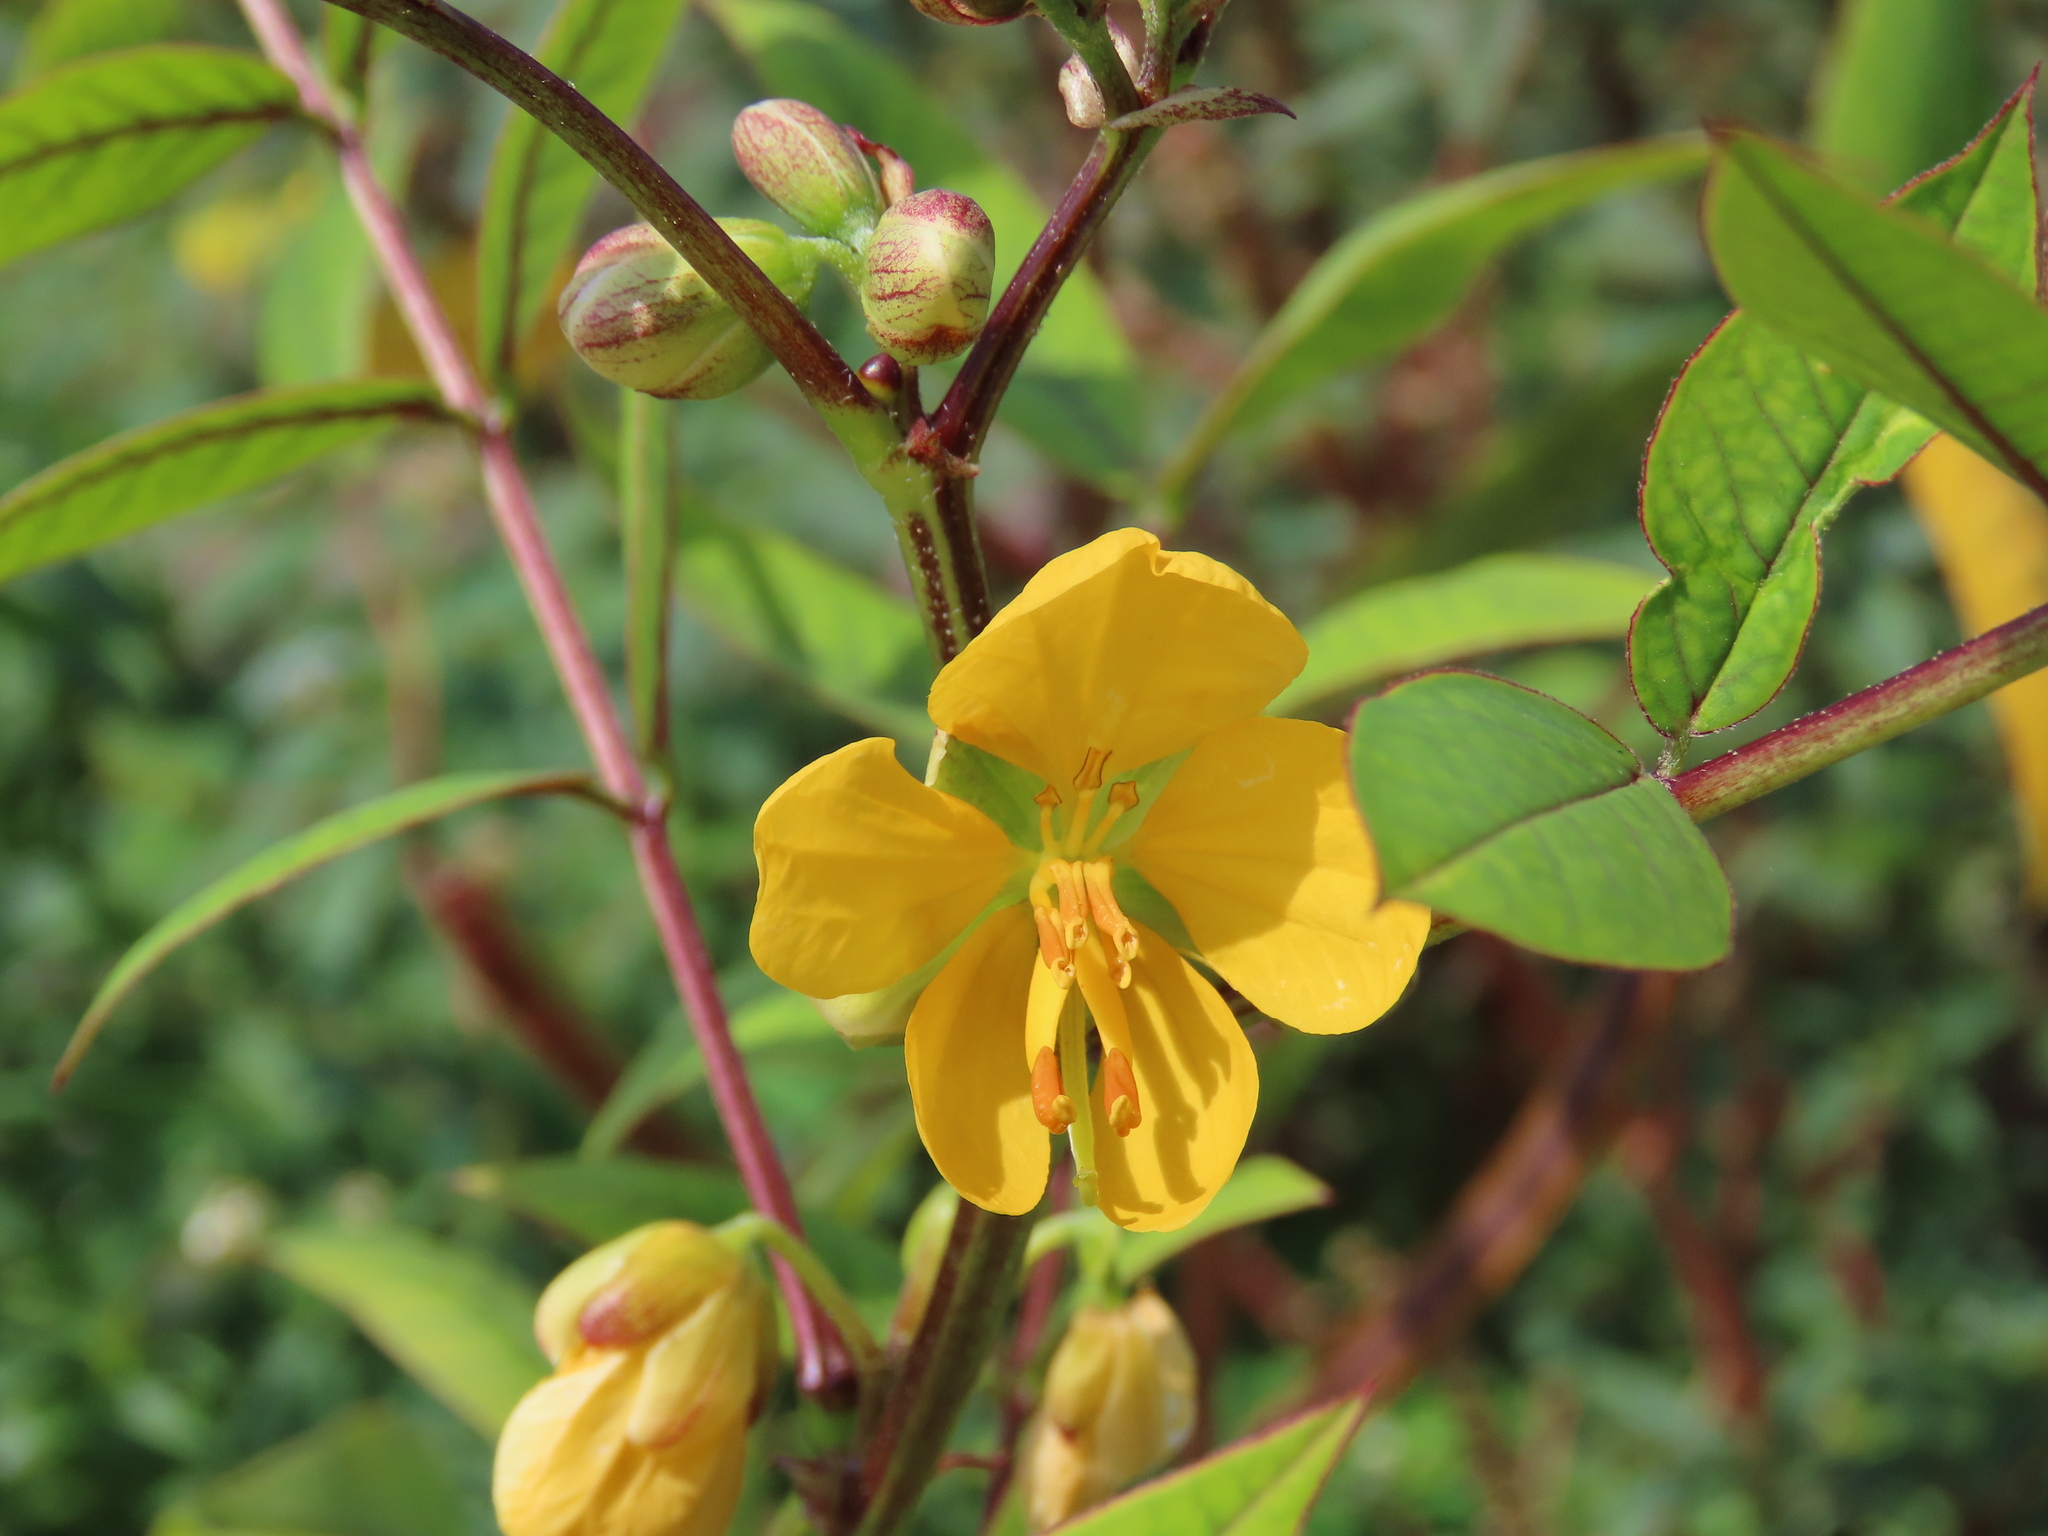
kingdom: Plantae
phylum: Tracheophyta
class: Magnoliopsida
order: Fabales
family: Fabaceae
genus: Senna
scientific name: Senna occidentalis
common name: Septicweed
